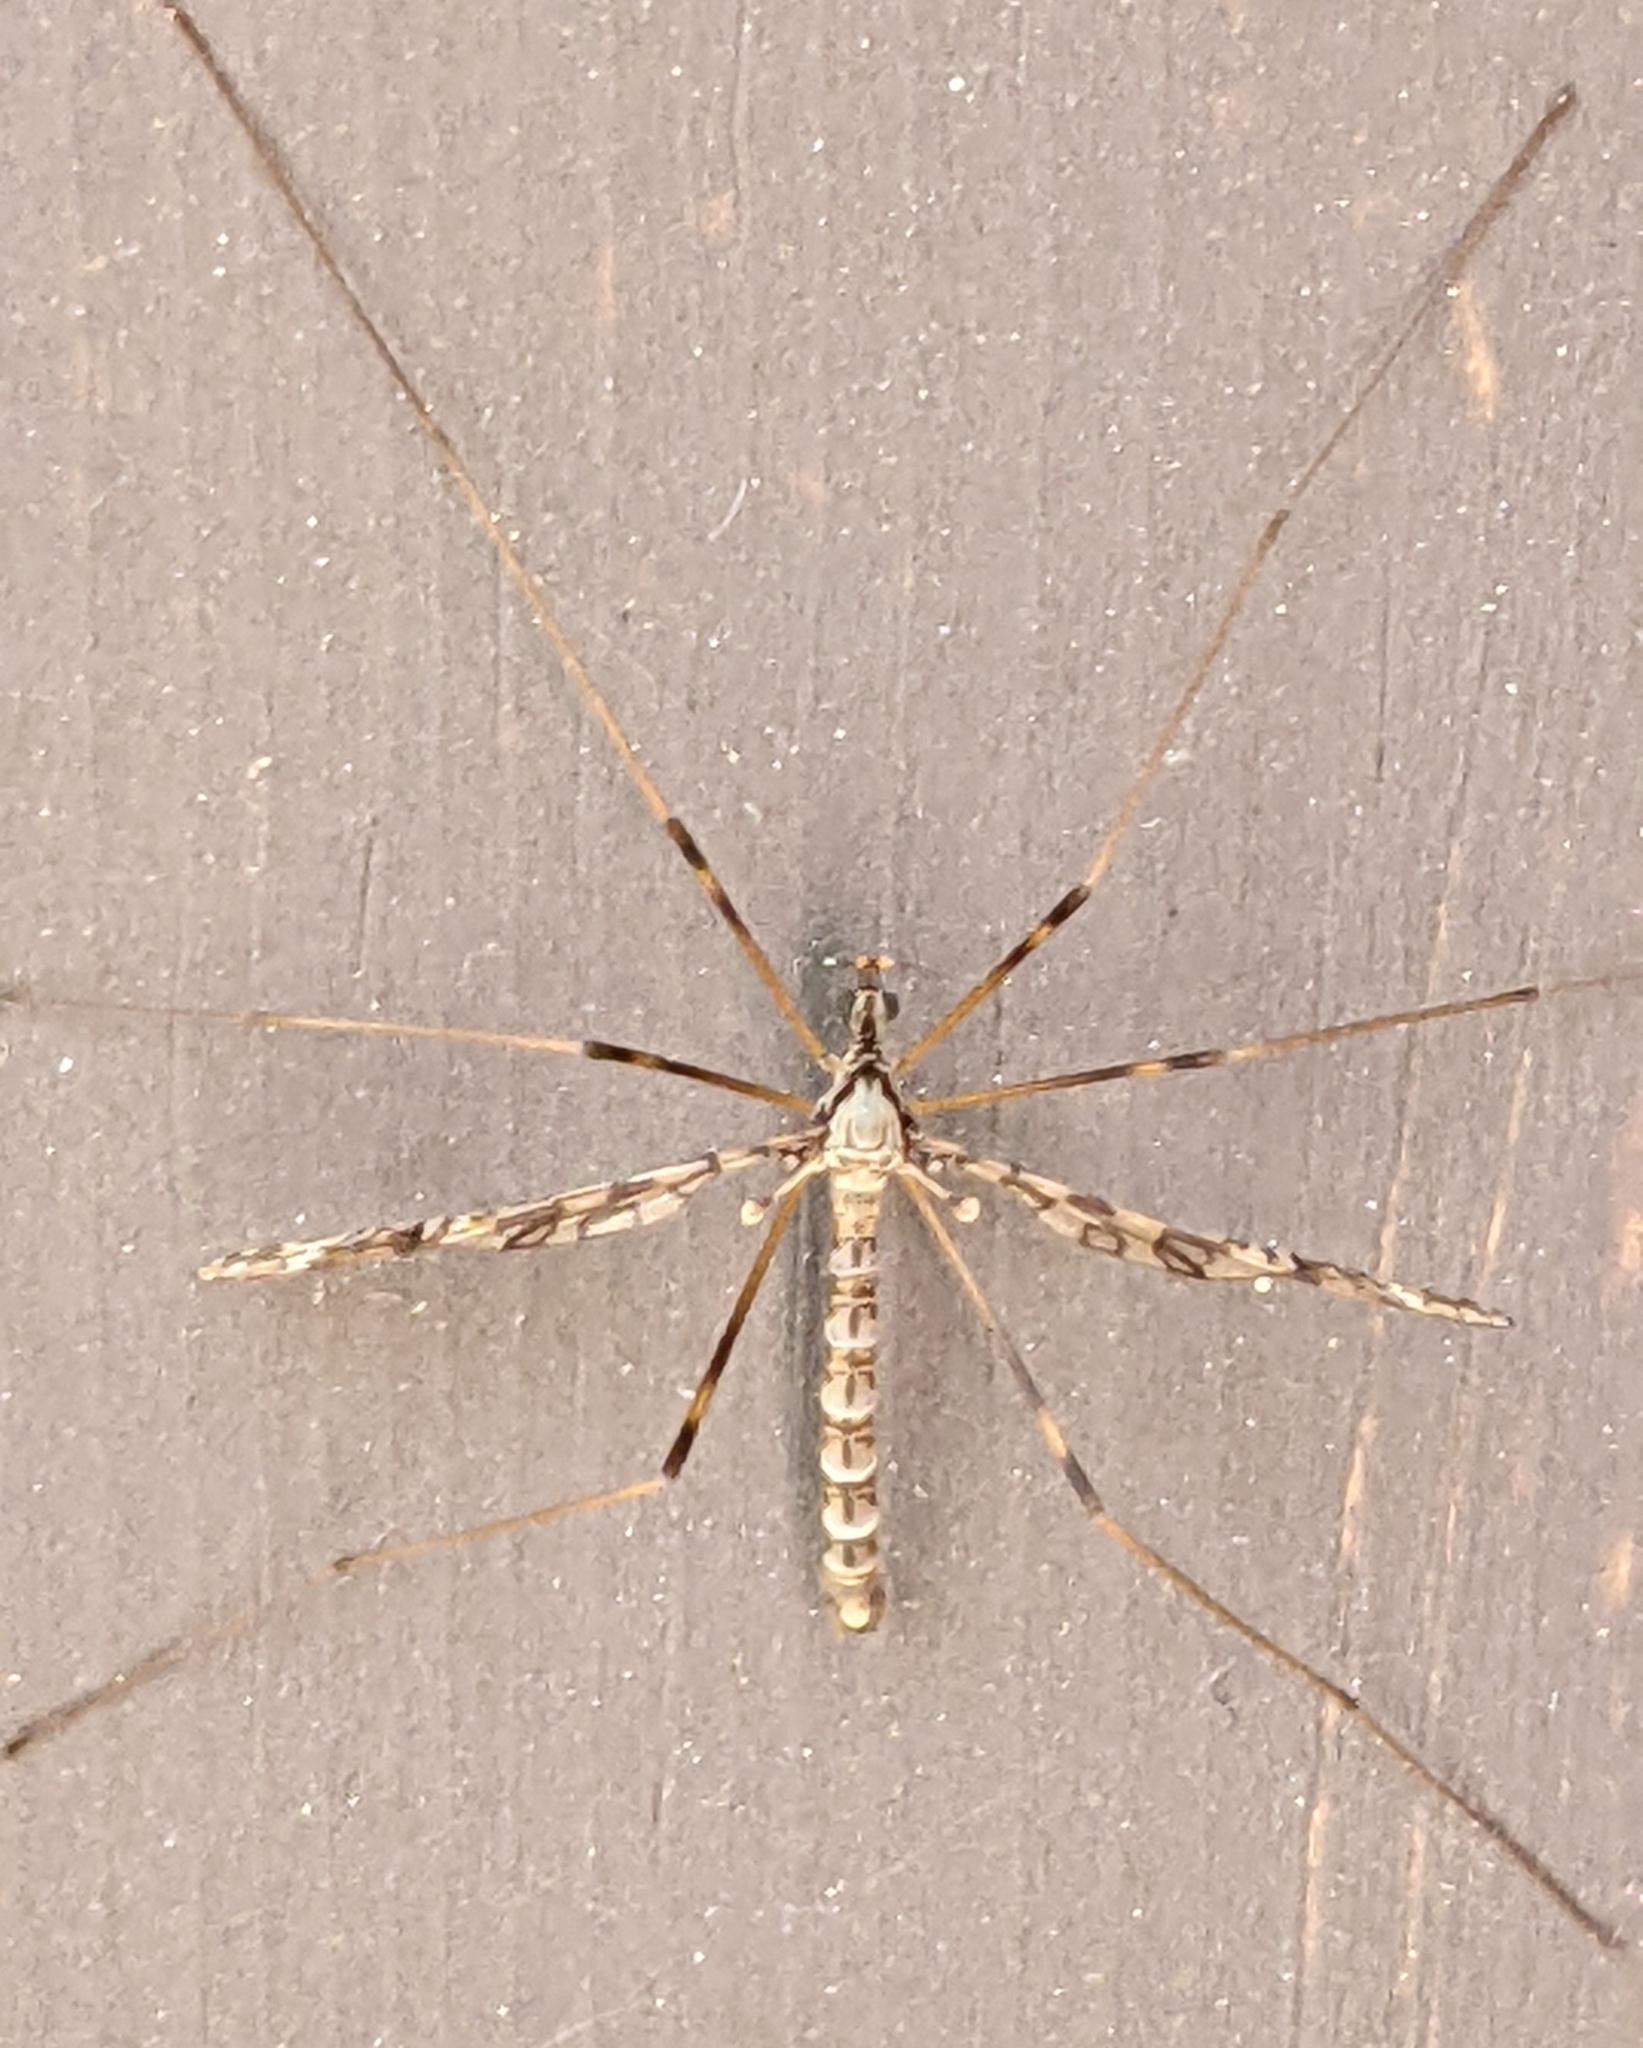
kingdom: Animalia
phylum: Arthropoda
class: Insecta
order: Diptera
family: Limoniidae
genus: Epiphragma
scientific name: Epiphragma fasciapenne
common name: Band-winged crane fly
